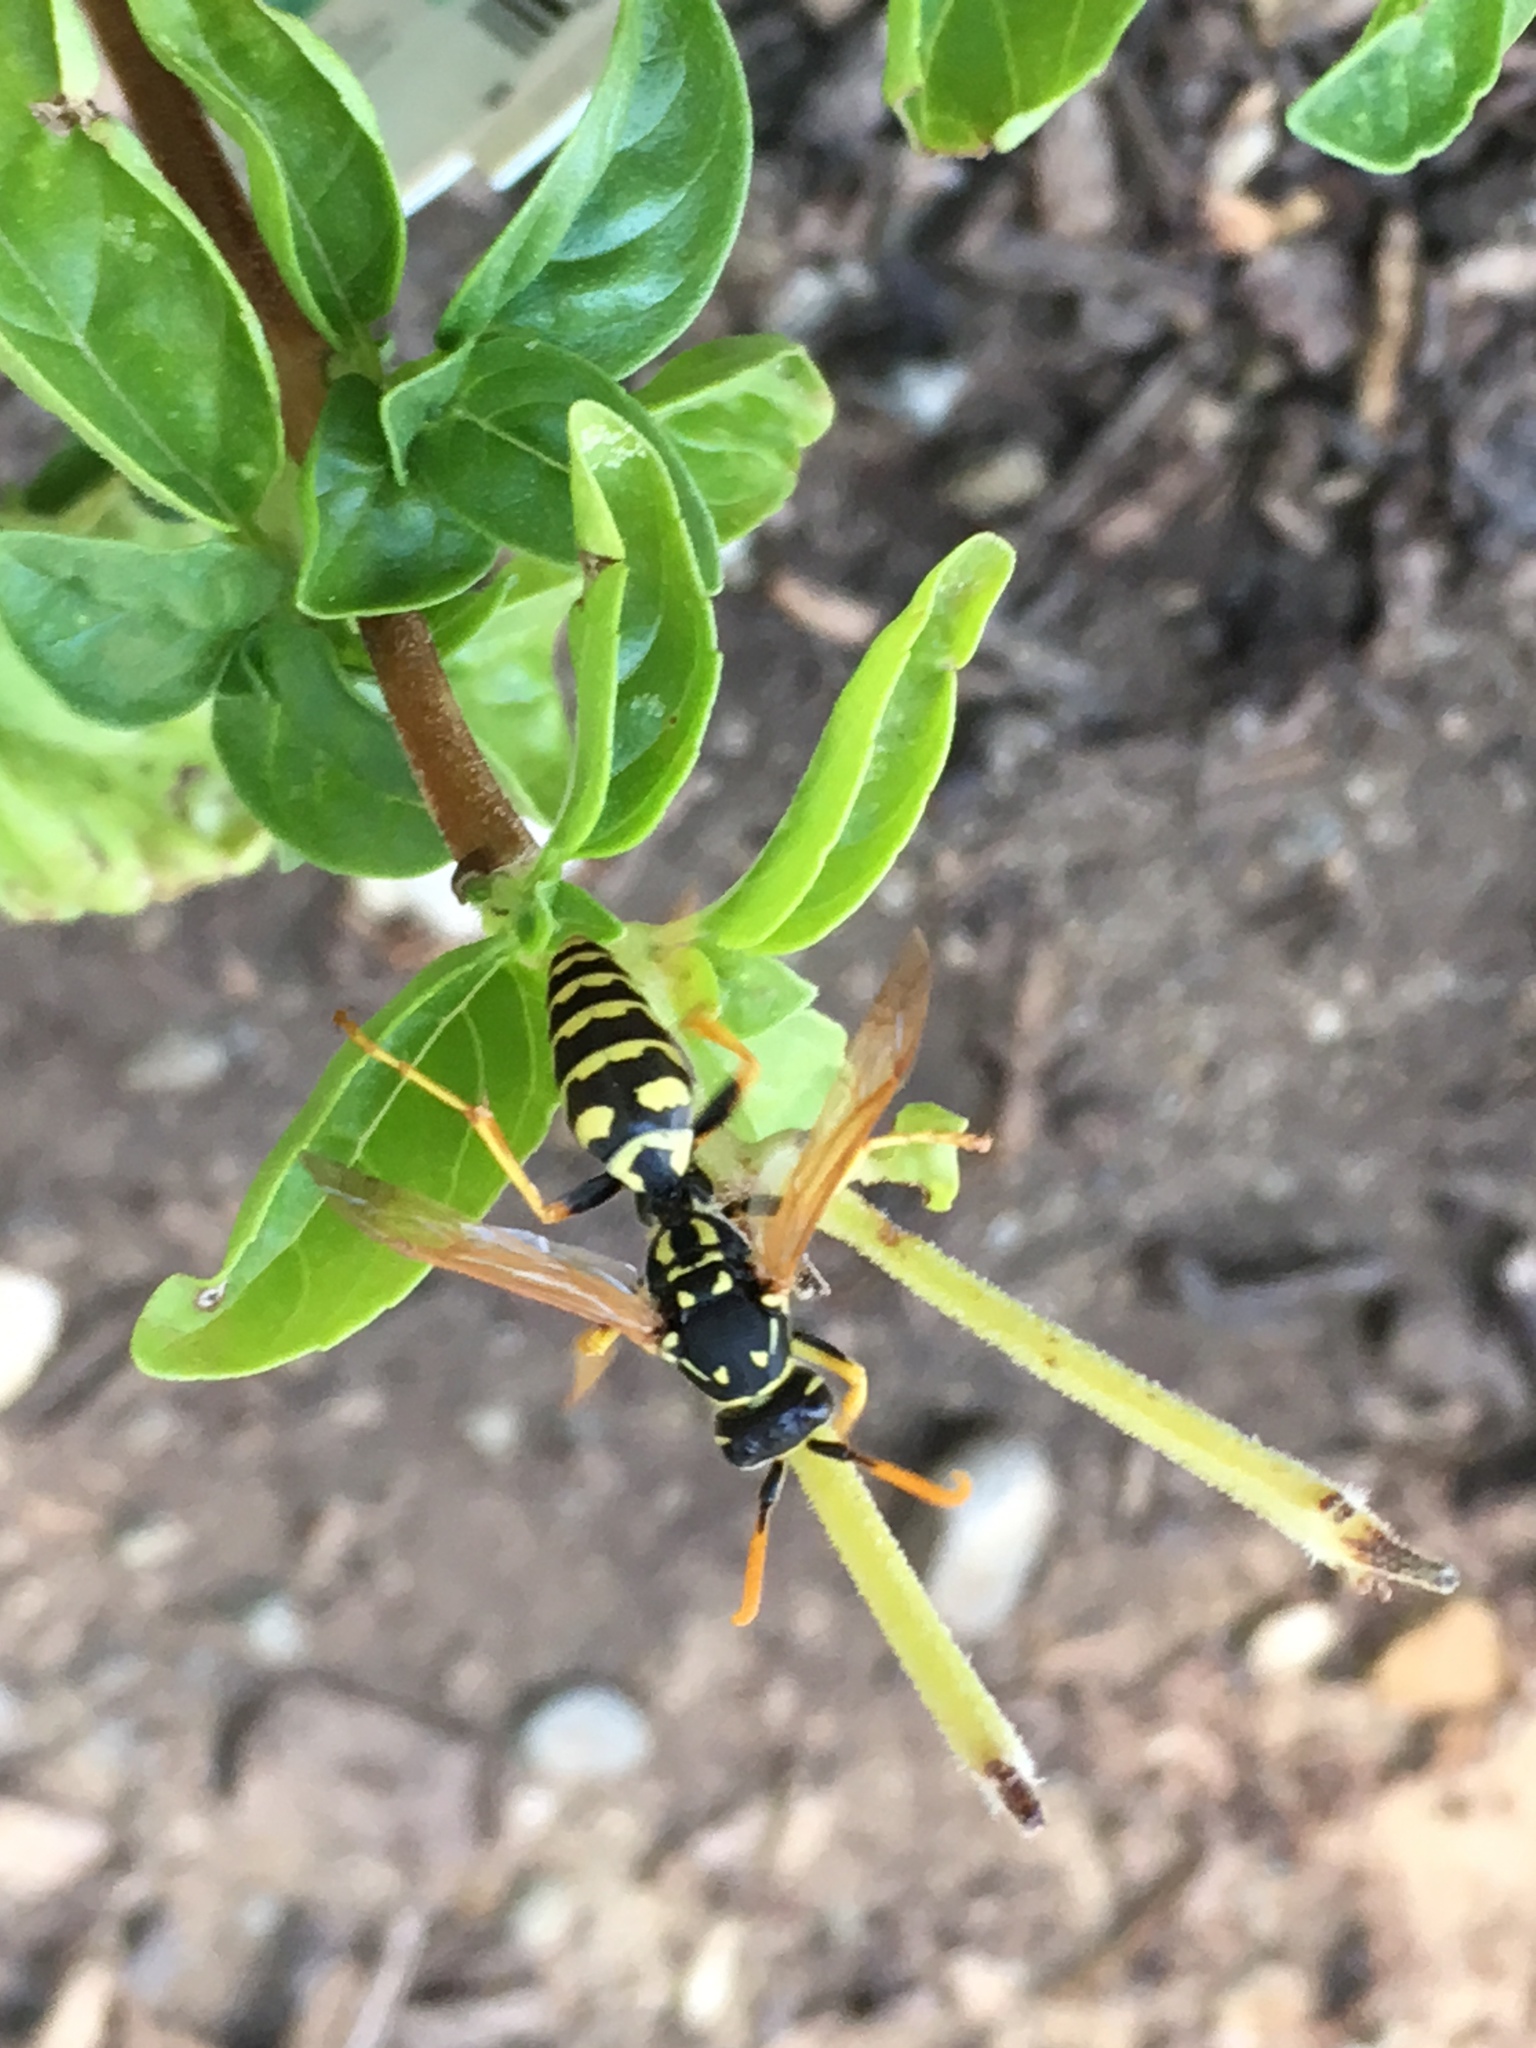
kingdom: Animalia
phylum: Arthropoda
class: Insecta
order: Hymenoptera
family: Eumenidae
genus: Polistes
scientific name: Polistes dominula
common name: Paper wasp
